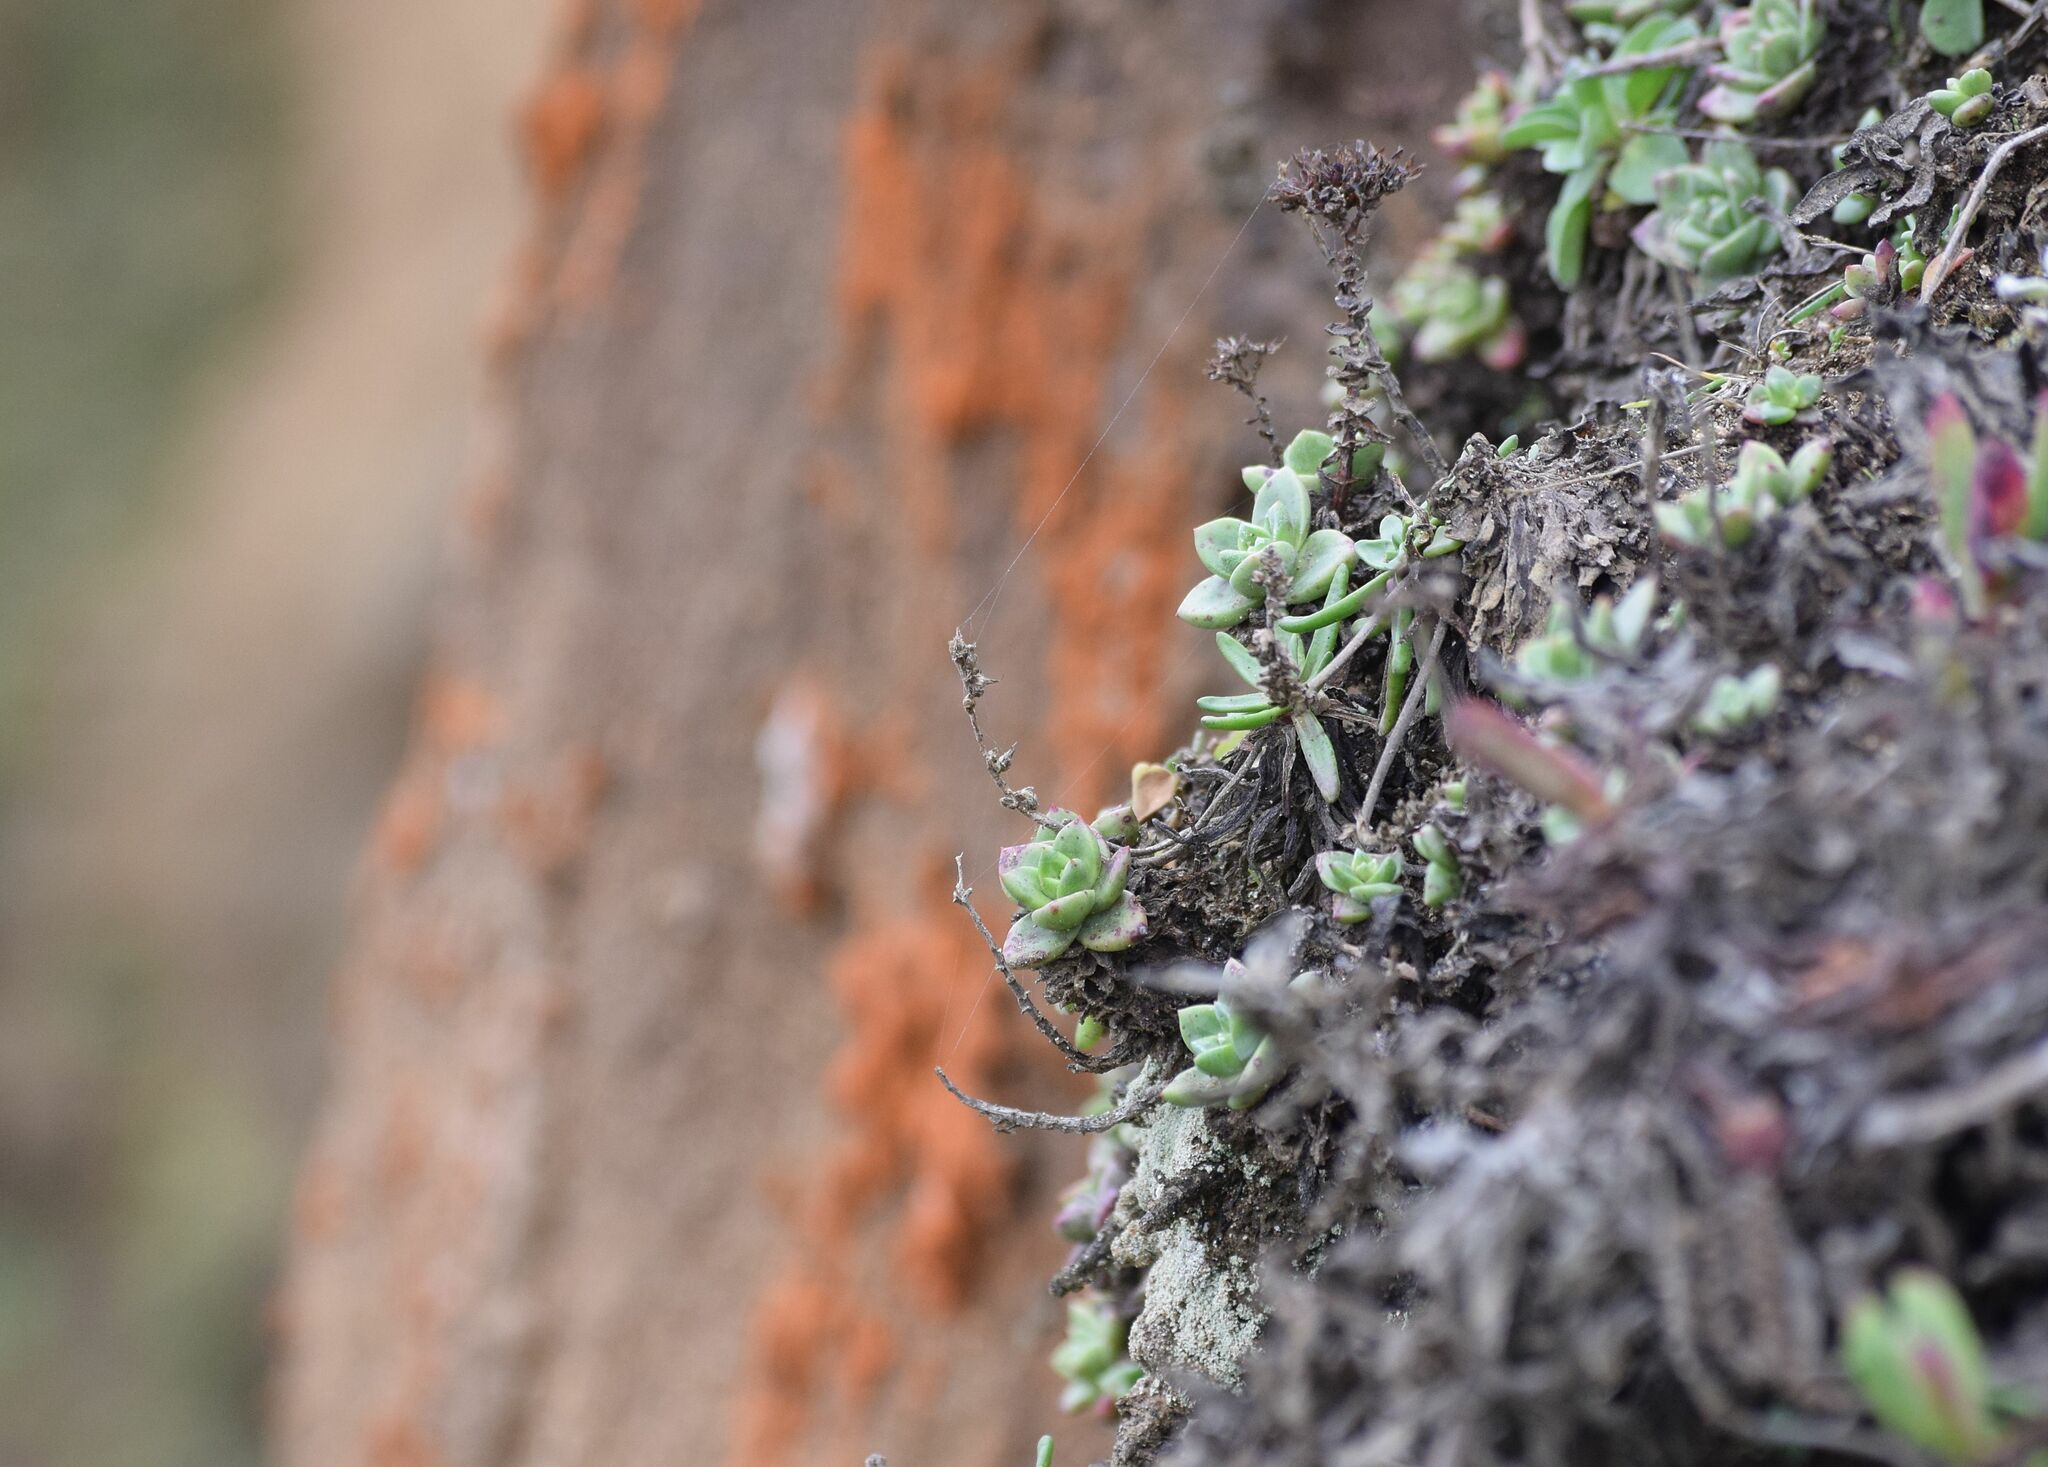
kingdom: Plantae
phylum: Tracheophyta
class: Magnoliopsida
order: Saxifragales
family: Crassulaceae
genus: Dudleya
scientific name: Dudleya farinosa
